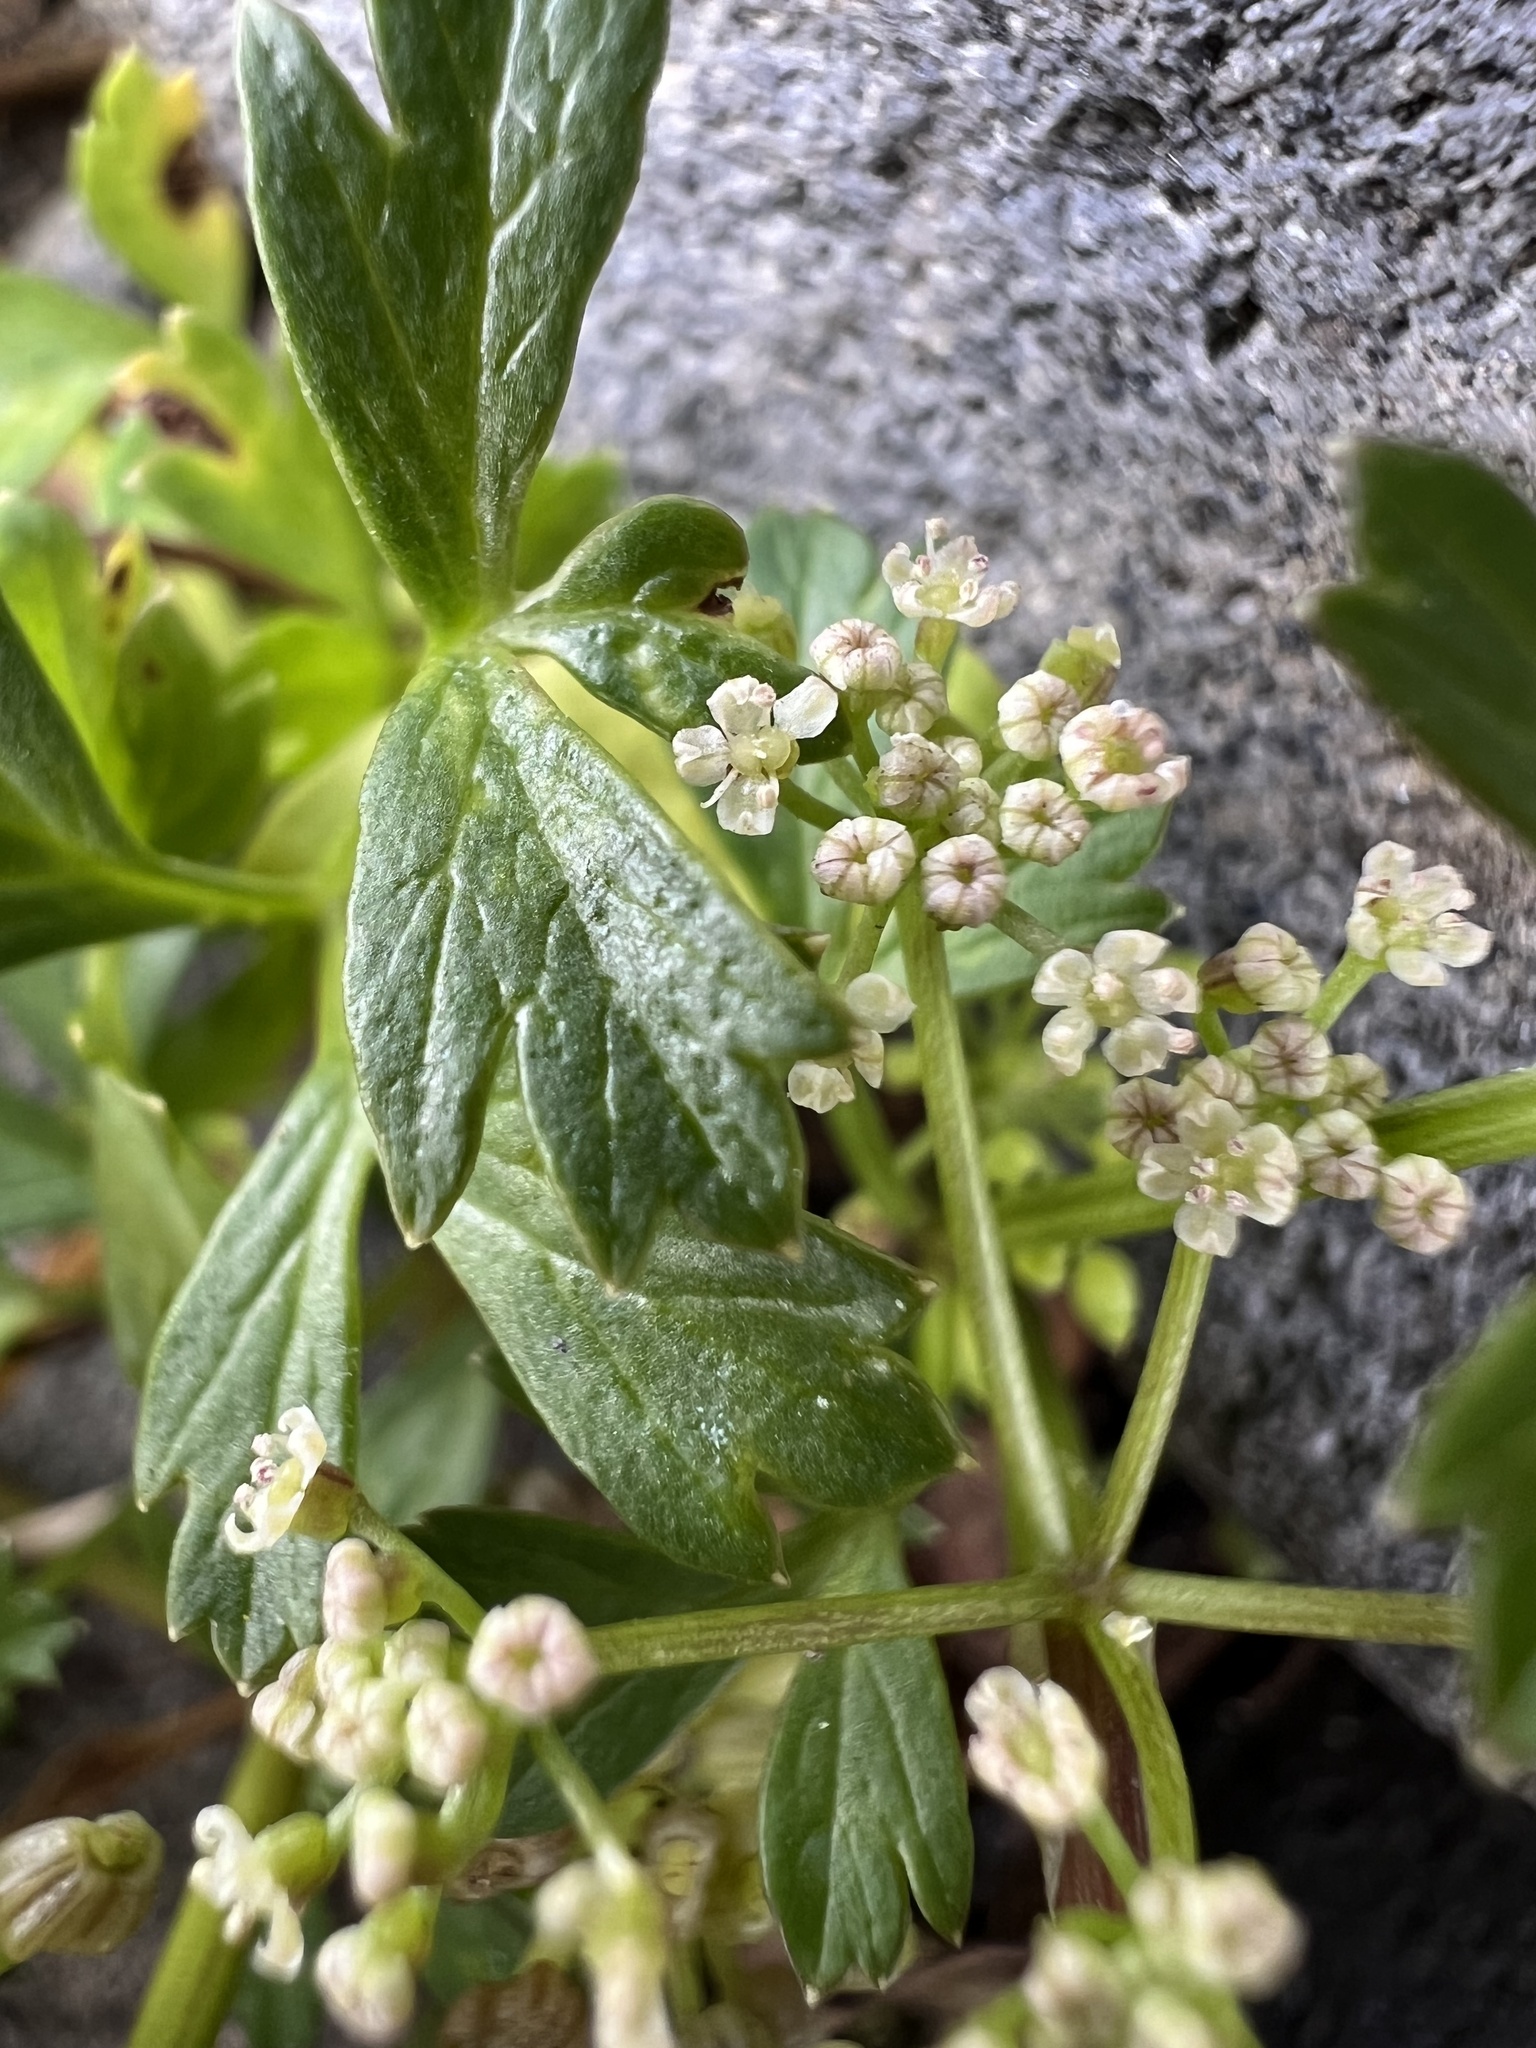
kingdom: Plantae
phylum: Tracheophyta
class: Magnoliopsida
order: Apiales
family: Apiaceae
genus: Apium
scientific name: Apium prostratum
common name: Prostrate marshwort
